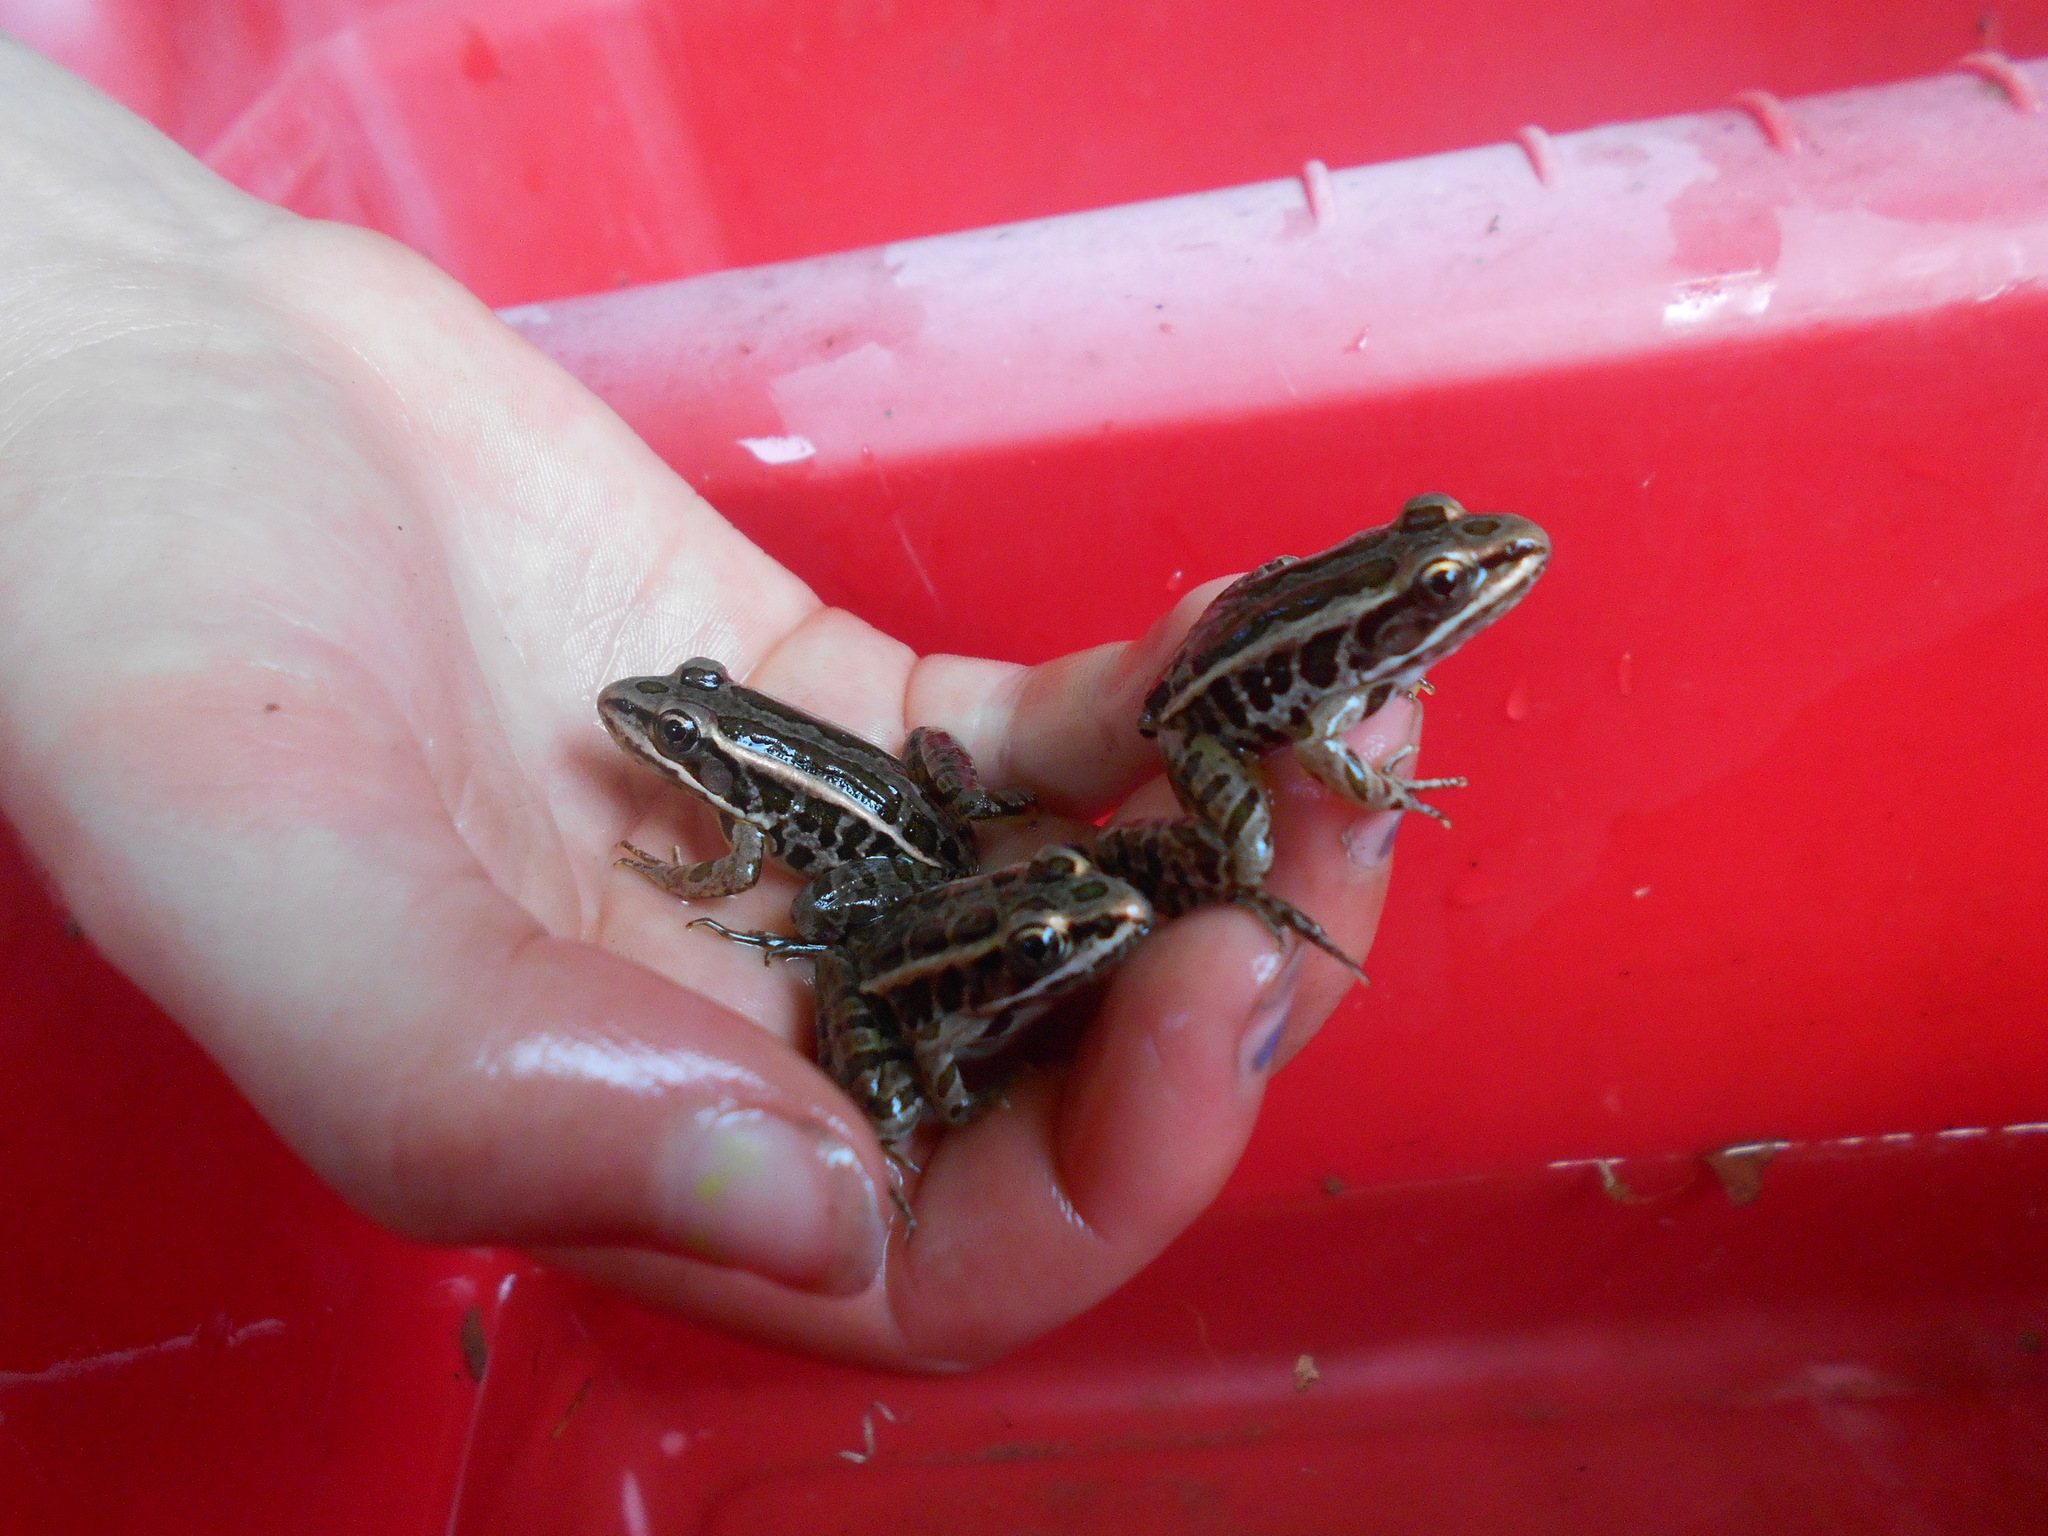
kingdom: Animalia
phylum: Chordata
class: Amphibia
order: Anura
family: Ranidae
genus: Lithobates
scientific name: Lithobates palustris
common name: Pickerel frog
